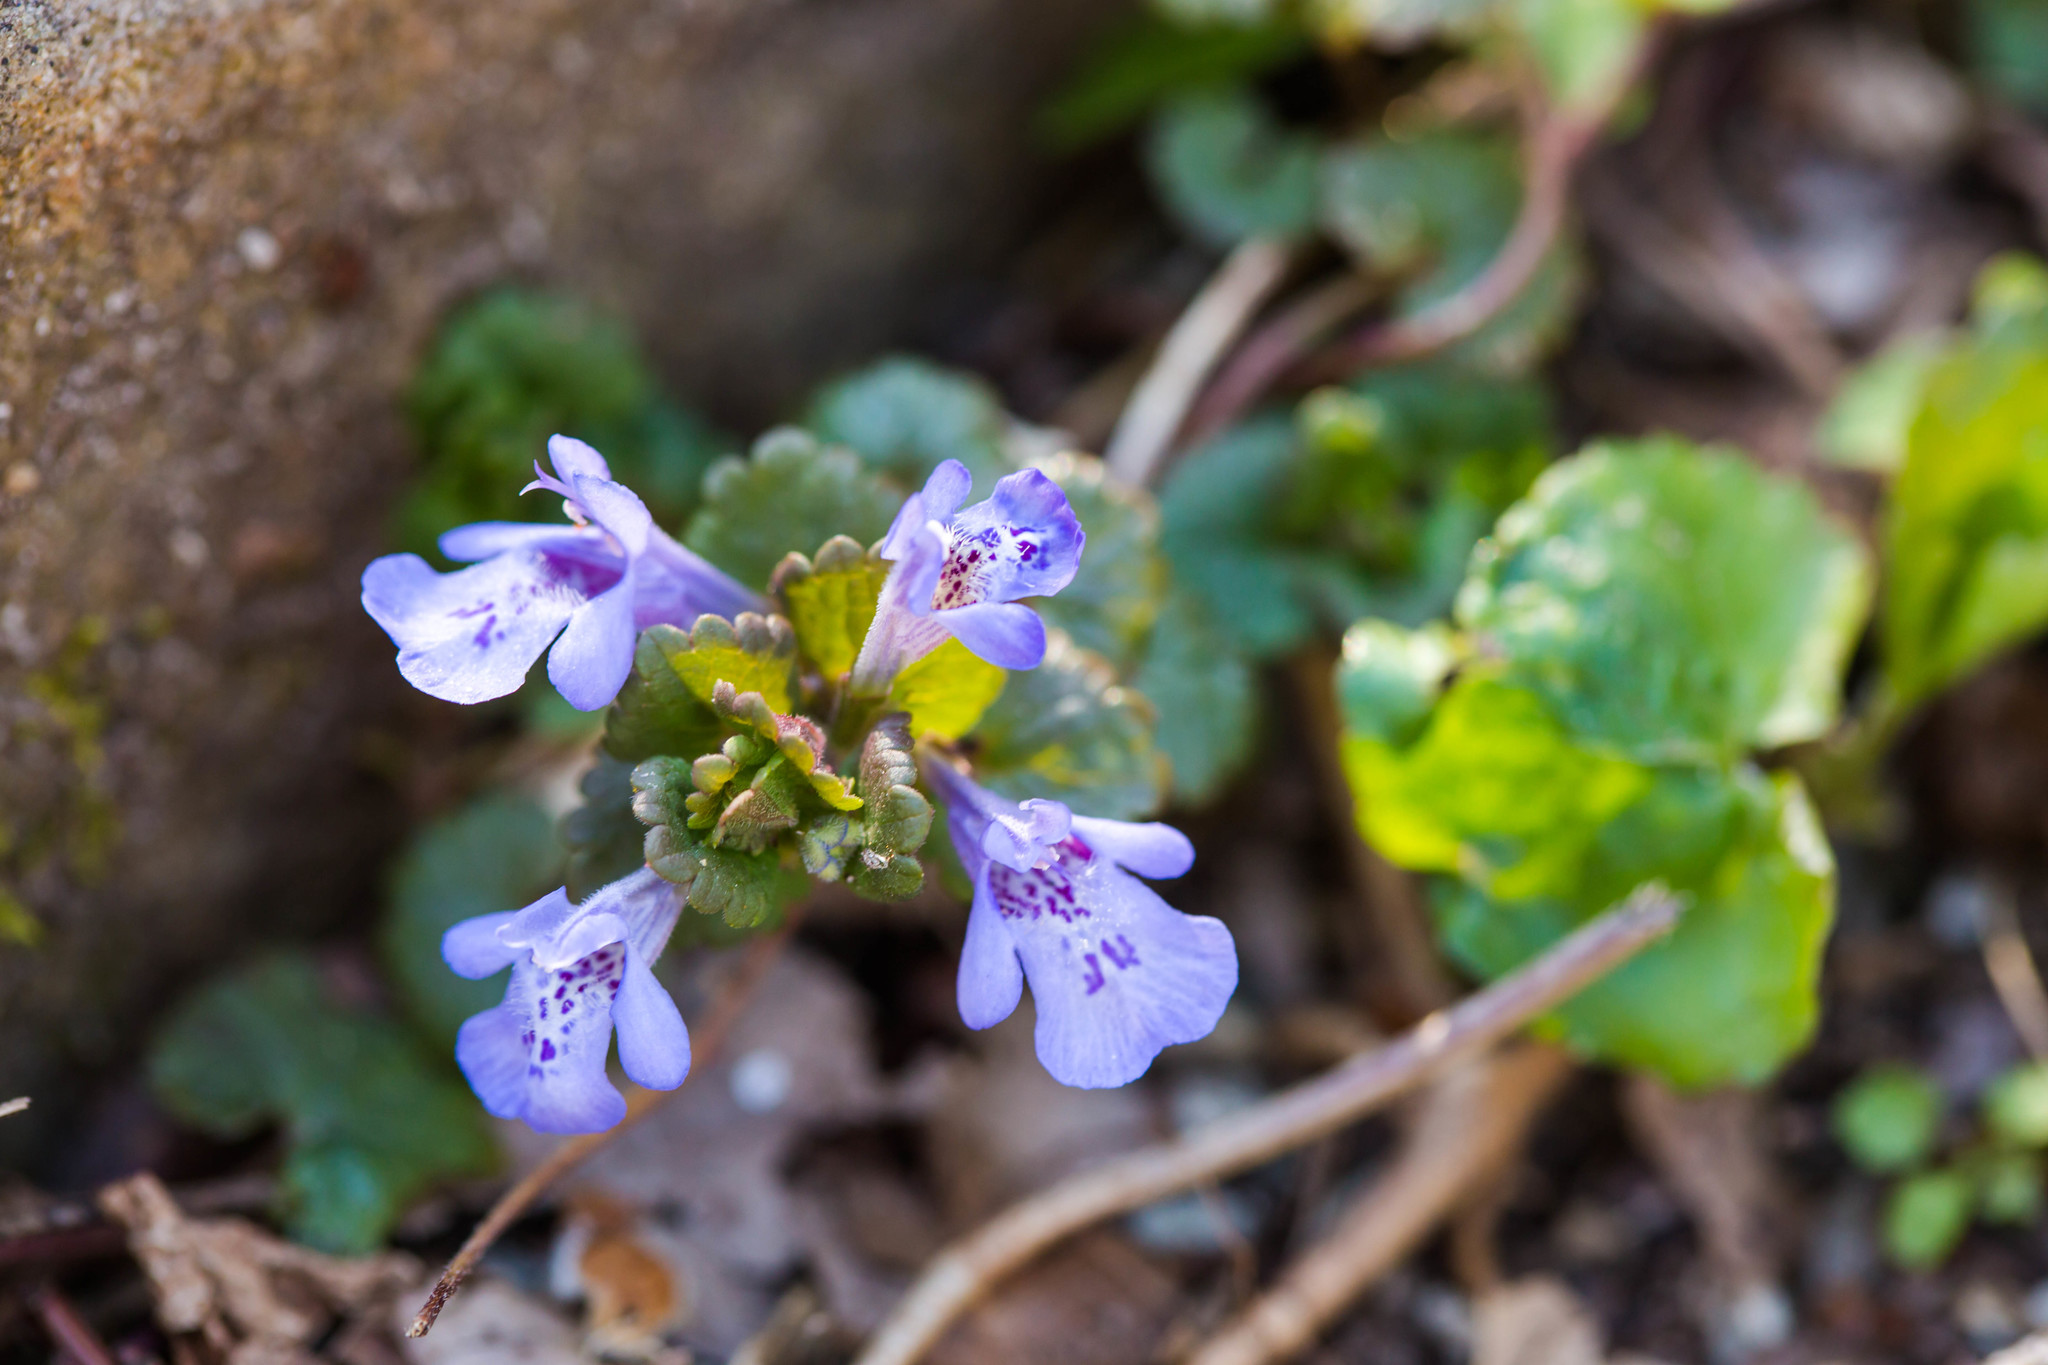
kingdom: Plantae
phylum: Tracheophyta
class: Magnoliopsida
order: Lamiales
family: Lamiaceae
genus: Glechoma
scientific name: Glechoma hederacea
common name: Ground ivy
